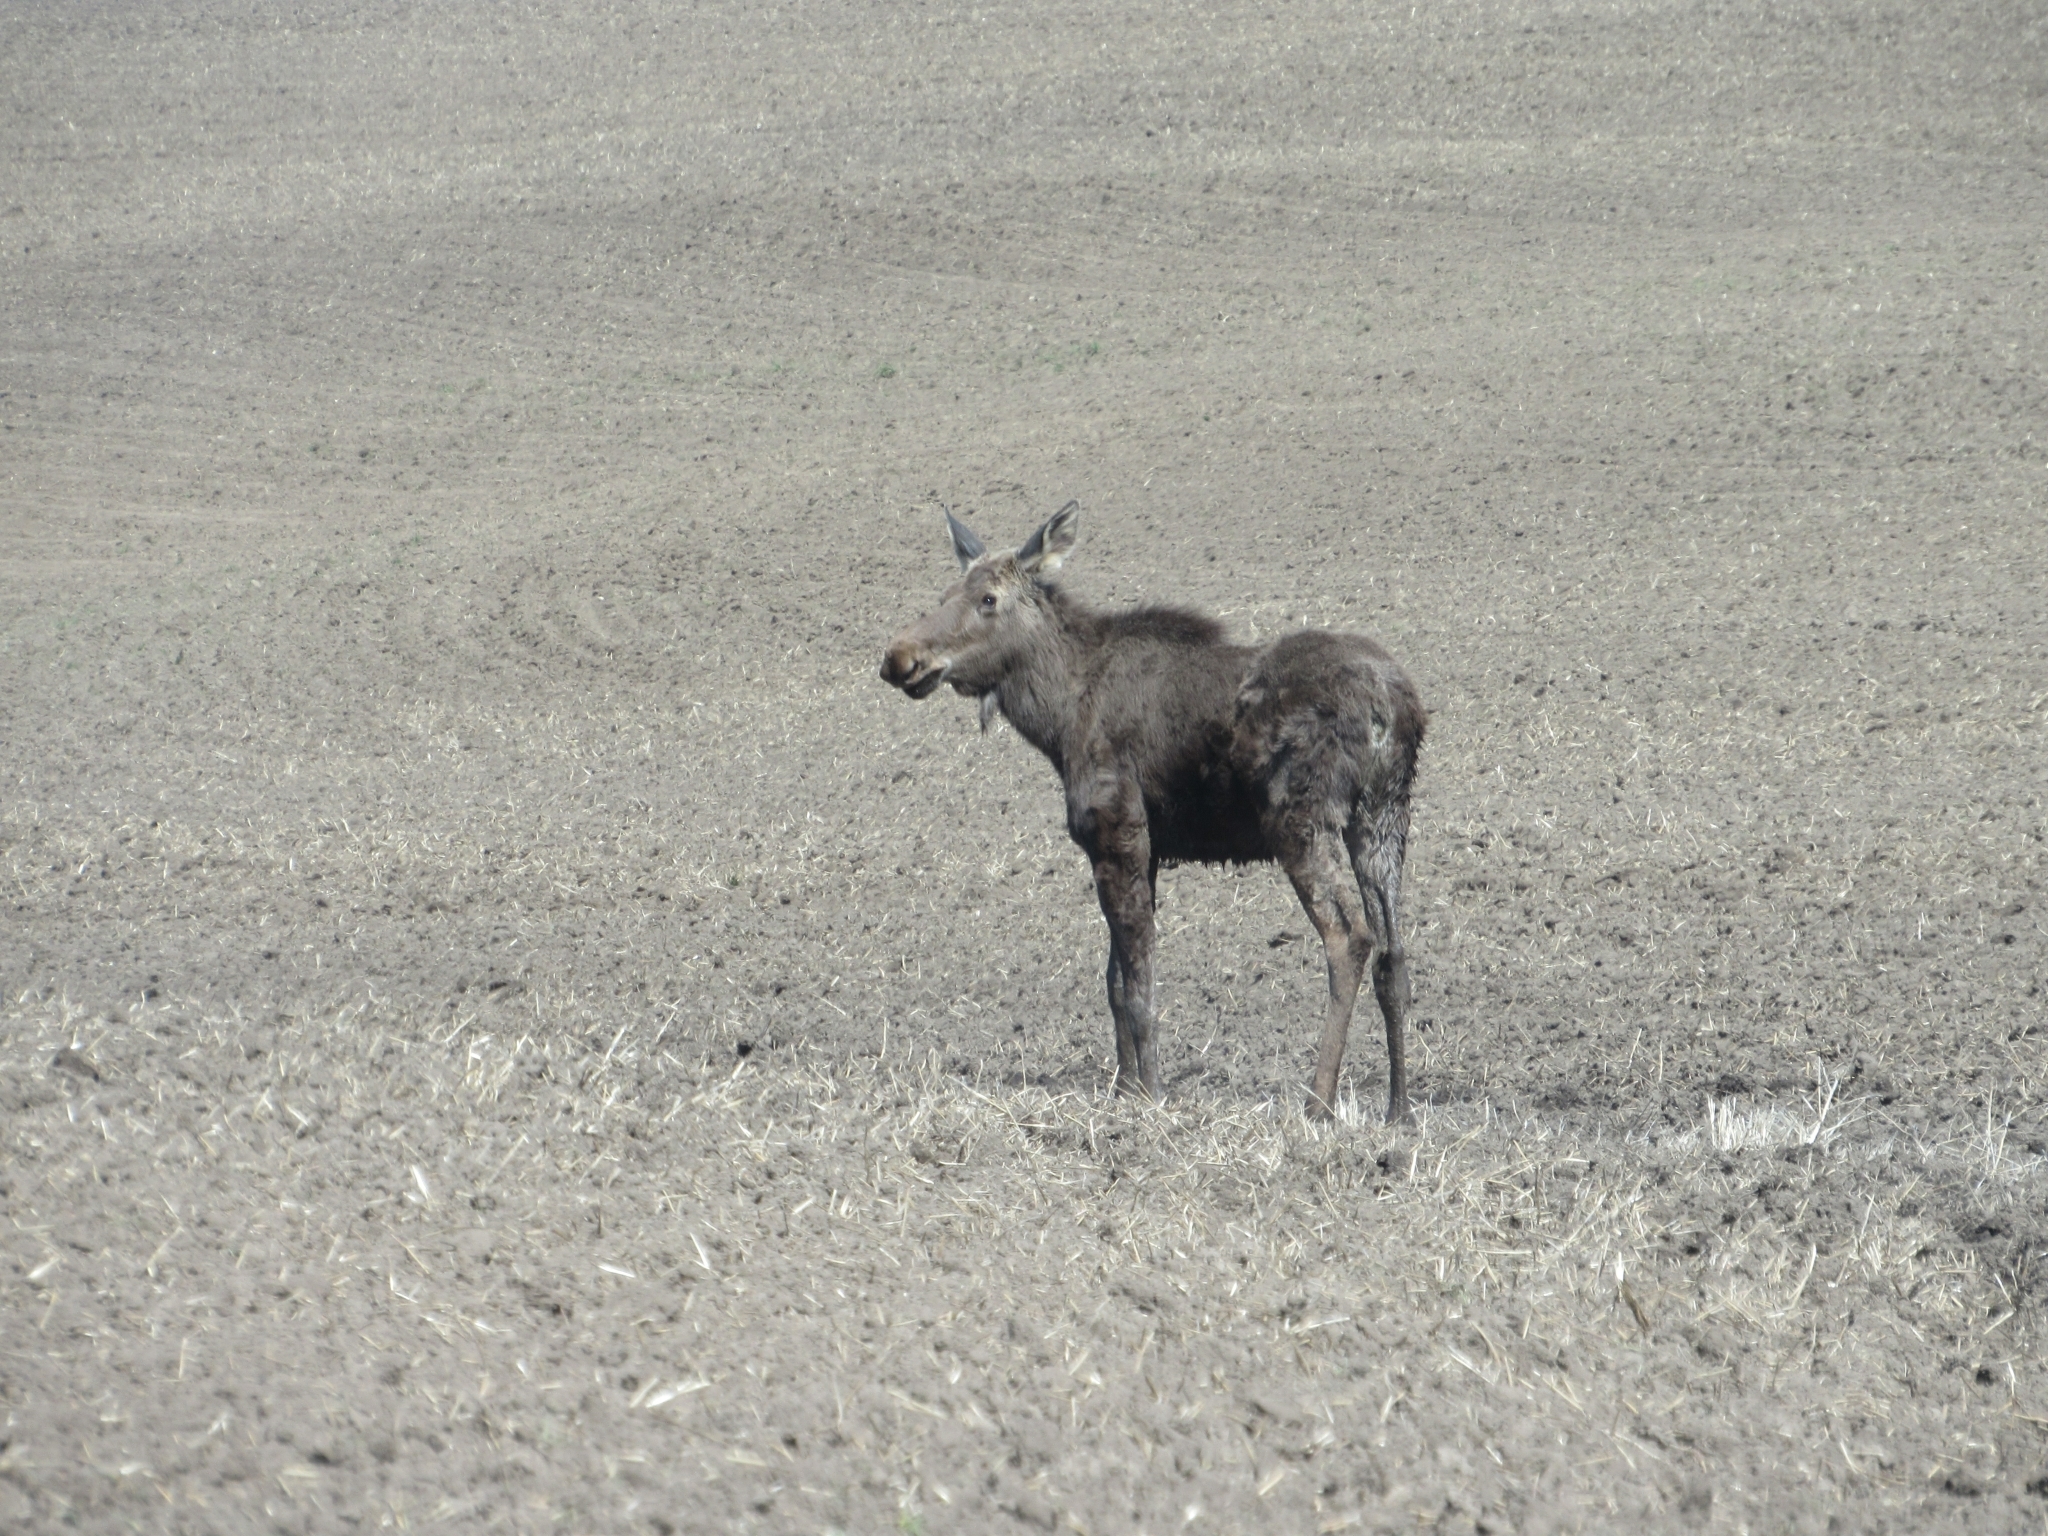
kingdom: Animalia
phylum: Chordata
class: Mammalia
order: Artiodactyla
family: Cervidae
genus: Alces
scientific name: Alces alces
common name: Moose
